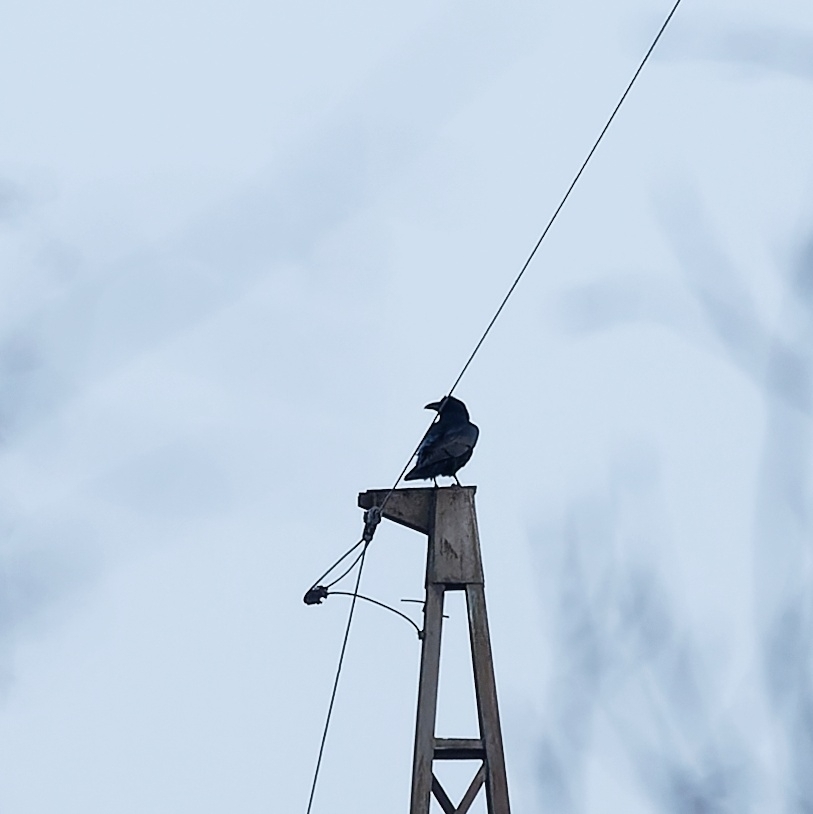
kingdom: Animalia
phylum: Chordata
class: Aves
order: Passeriformes
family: Corvidae
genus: Corvus
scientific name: Corvus corax
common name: Common raven
